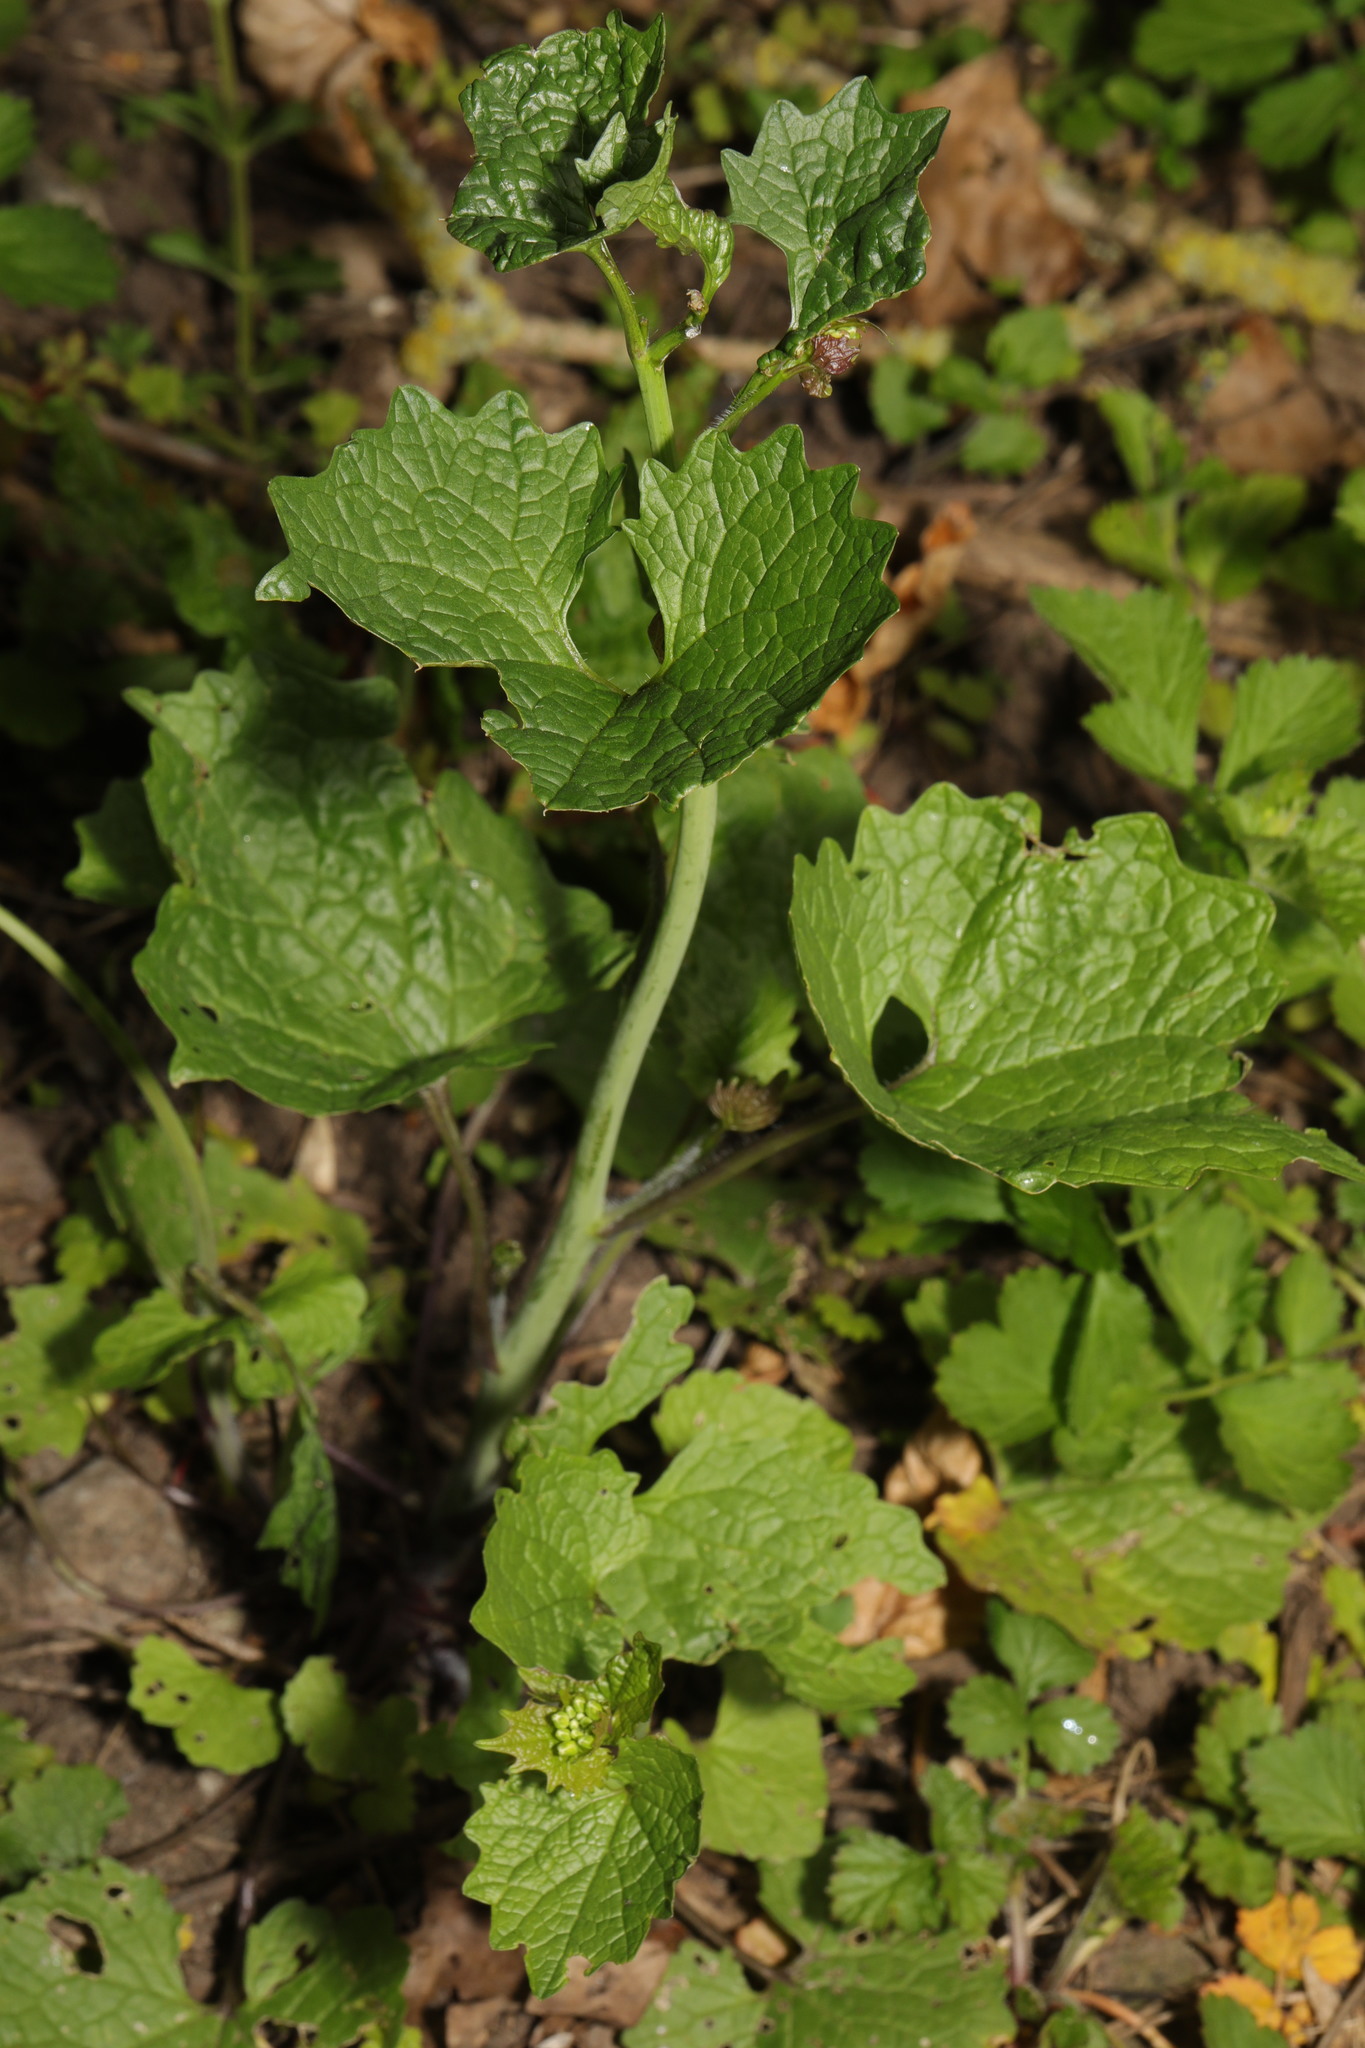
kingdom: Plantae
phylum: Tracheophyta
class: Magnoliopsida
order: Brassicales
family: Brassicaceae
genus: Alliaria
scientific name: Alliaria petiolata
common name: Garlic mustard
